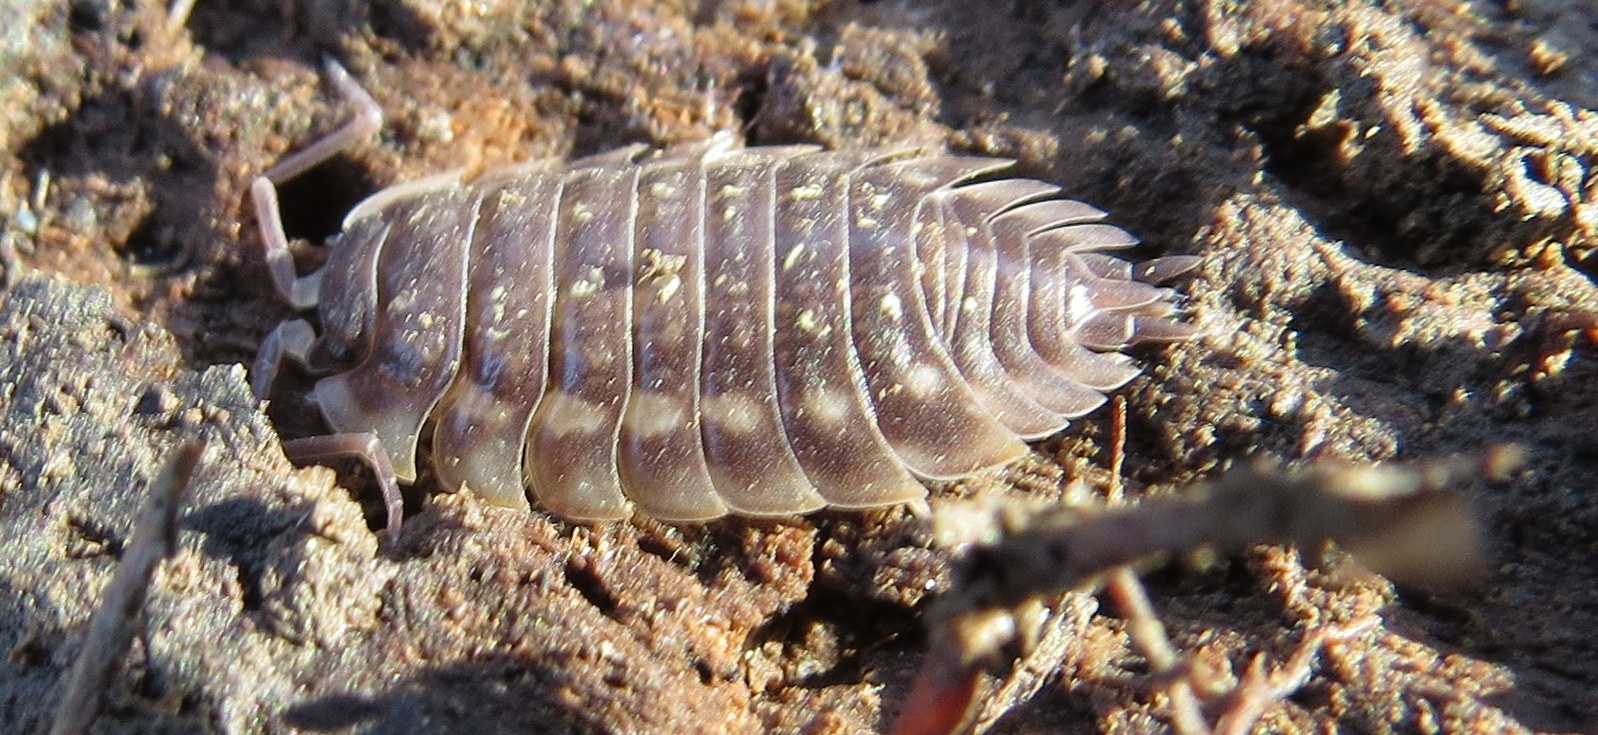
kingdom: Animalia
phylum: Arthropoda
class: Malacostraca
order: Isopoda
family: Oniscidae
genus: Oniscus
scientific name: Oniscus asellus
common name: Common shiny woodlouse
